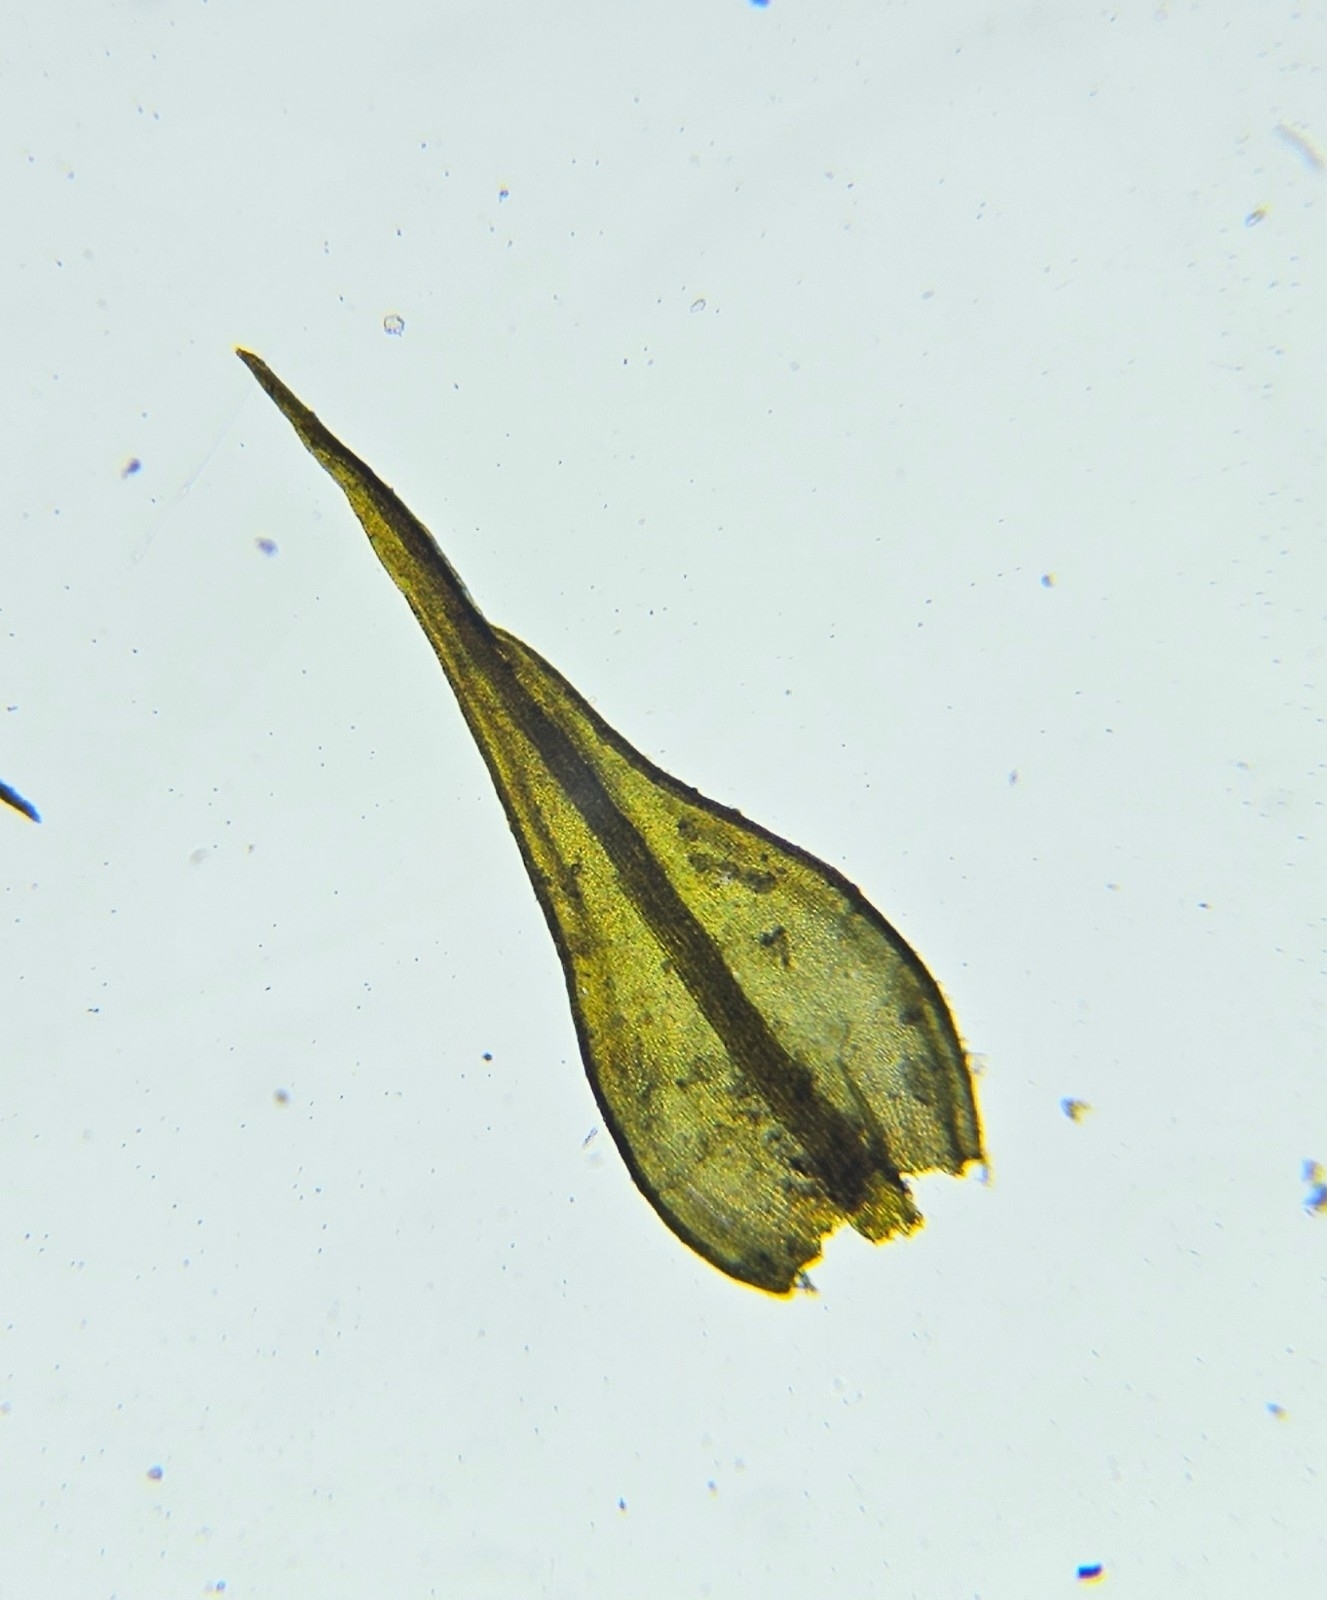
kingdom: Plantae
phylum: Bryophyta
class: Bryopsida
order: Pottiales
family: Pottiaceae
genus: Geheebia
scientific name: Geheebia fallax
